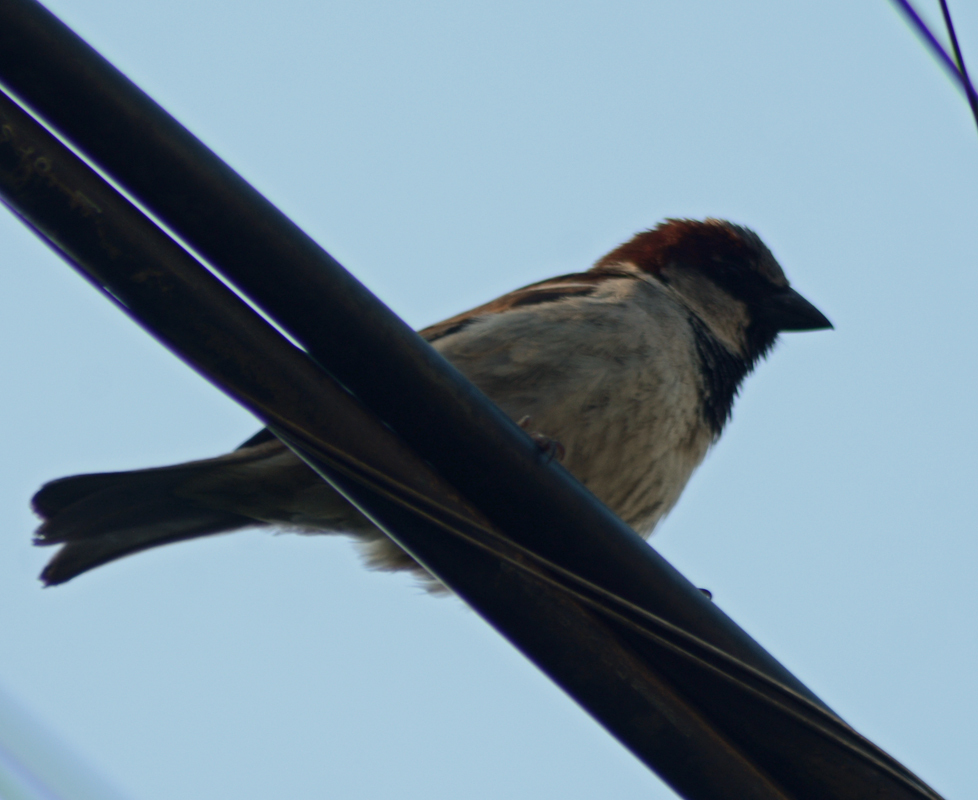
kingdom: Animalia
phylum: Chordata
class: Aves
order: Passeriformes
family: Passeridae
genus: Passer
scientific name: Passer domesticus
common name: House sparrow
